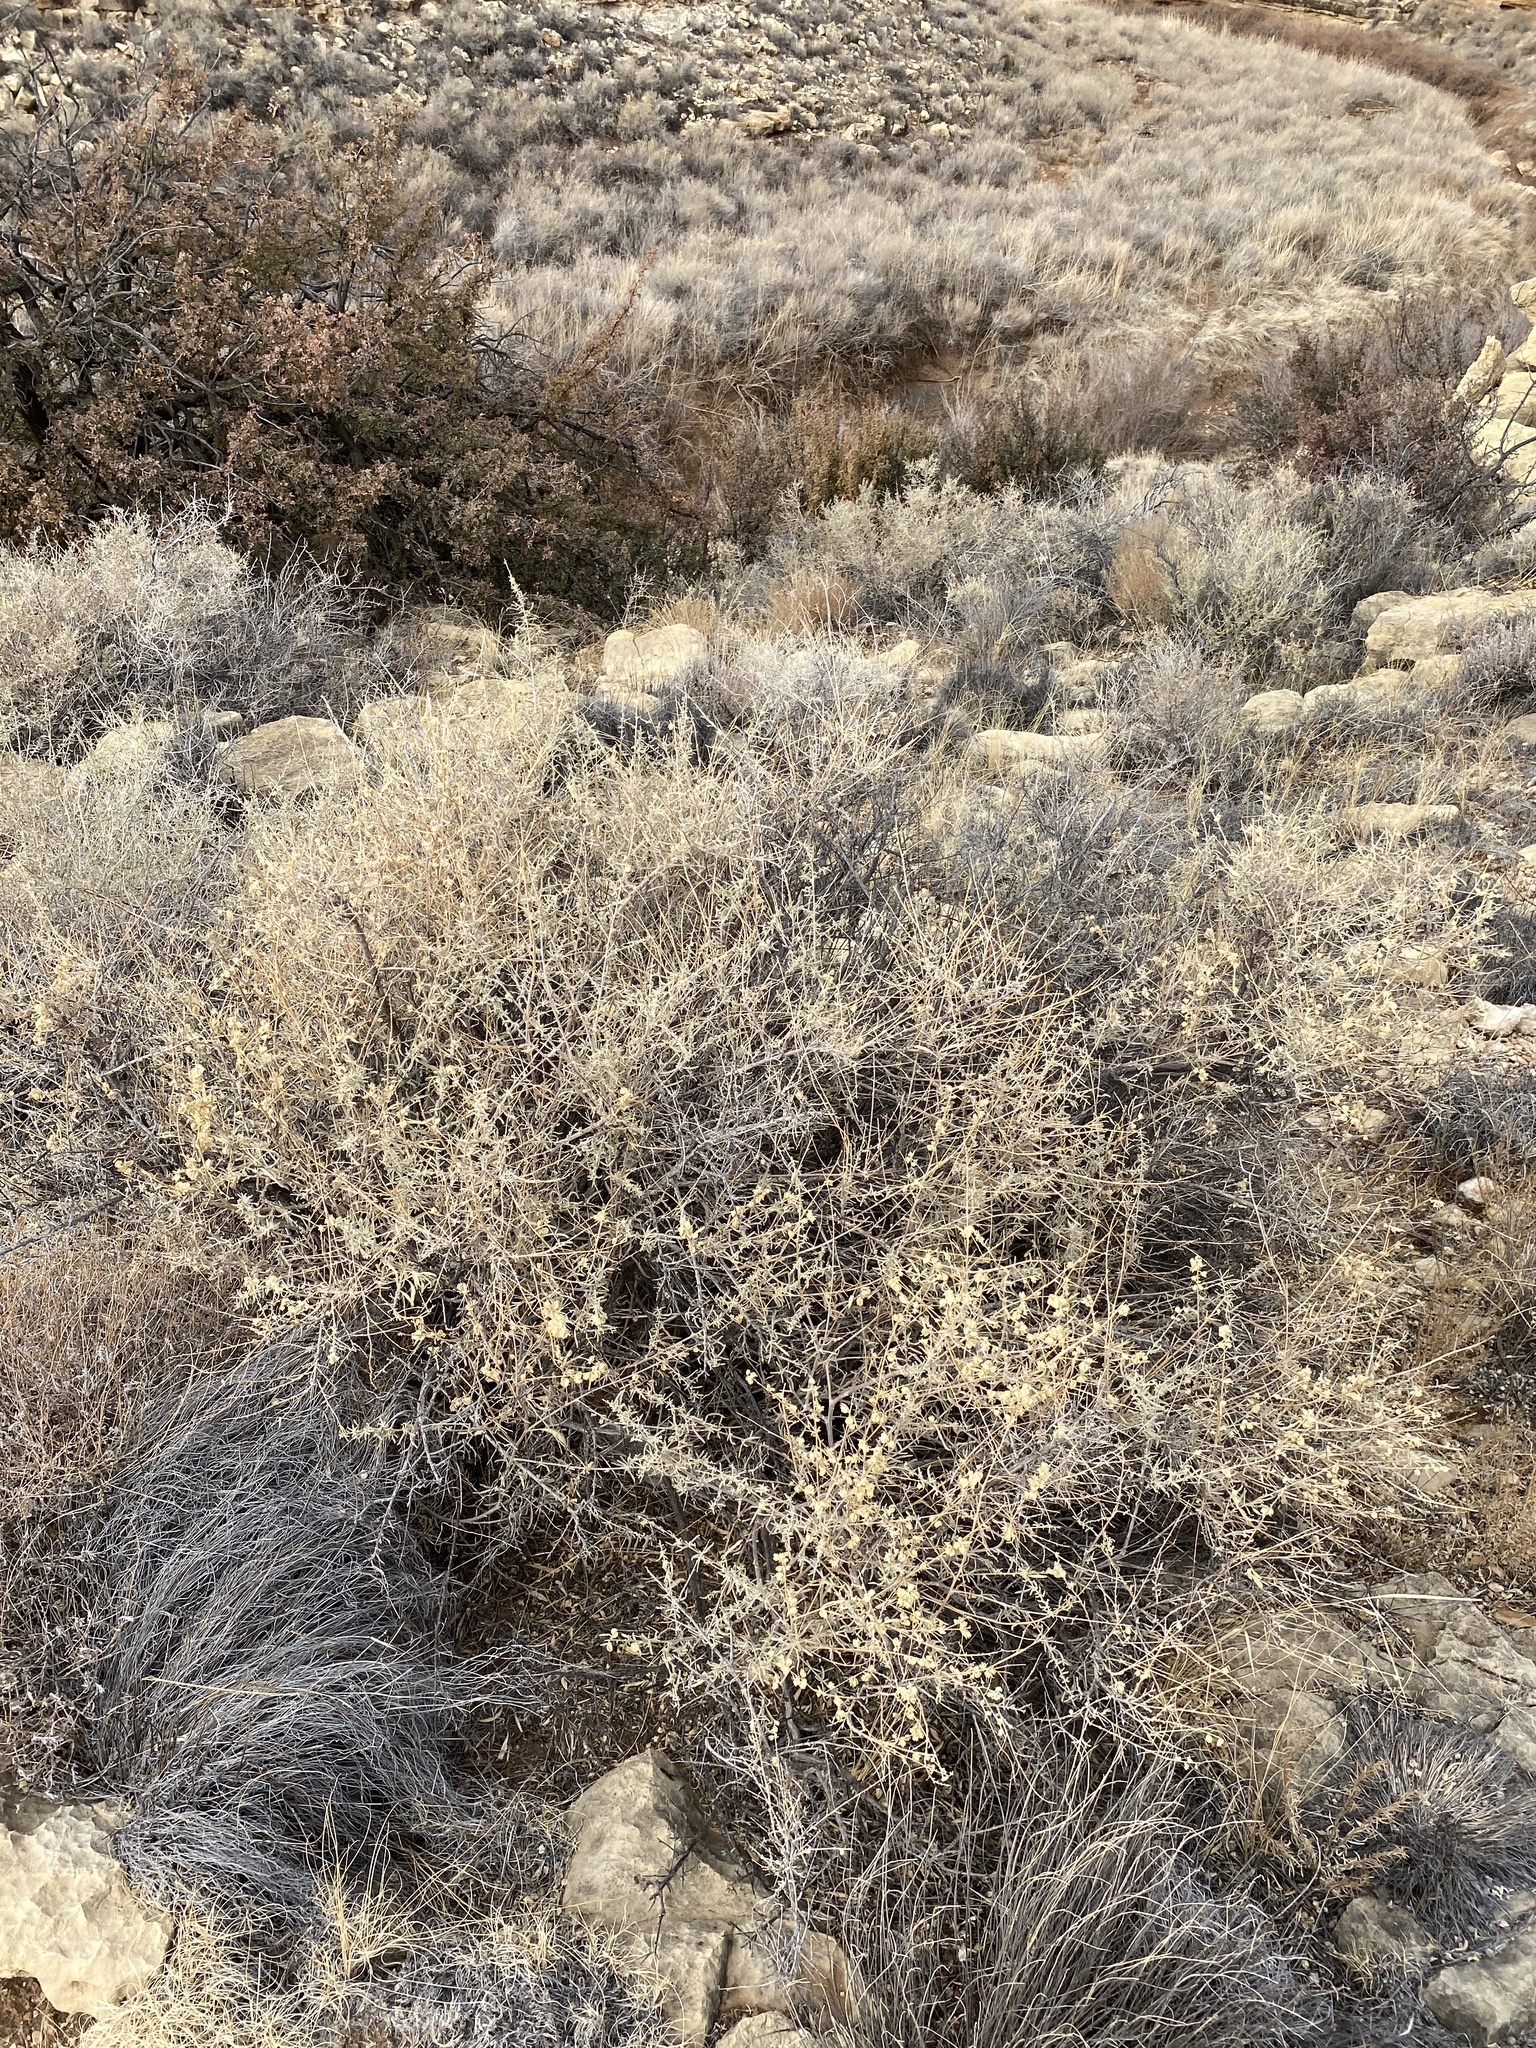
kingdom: Plantae
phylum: Tracheophyta
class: Magnoliopsida
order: Caryophyllales
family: Amaranthaceae
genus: Atriplex
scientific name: Atriplex canescens
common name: Four-wing saltbush
